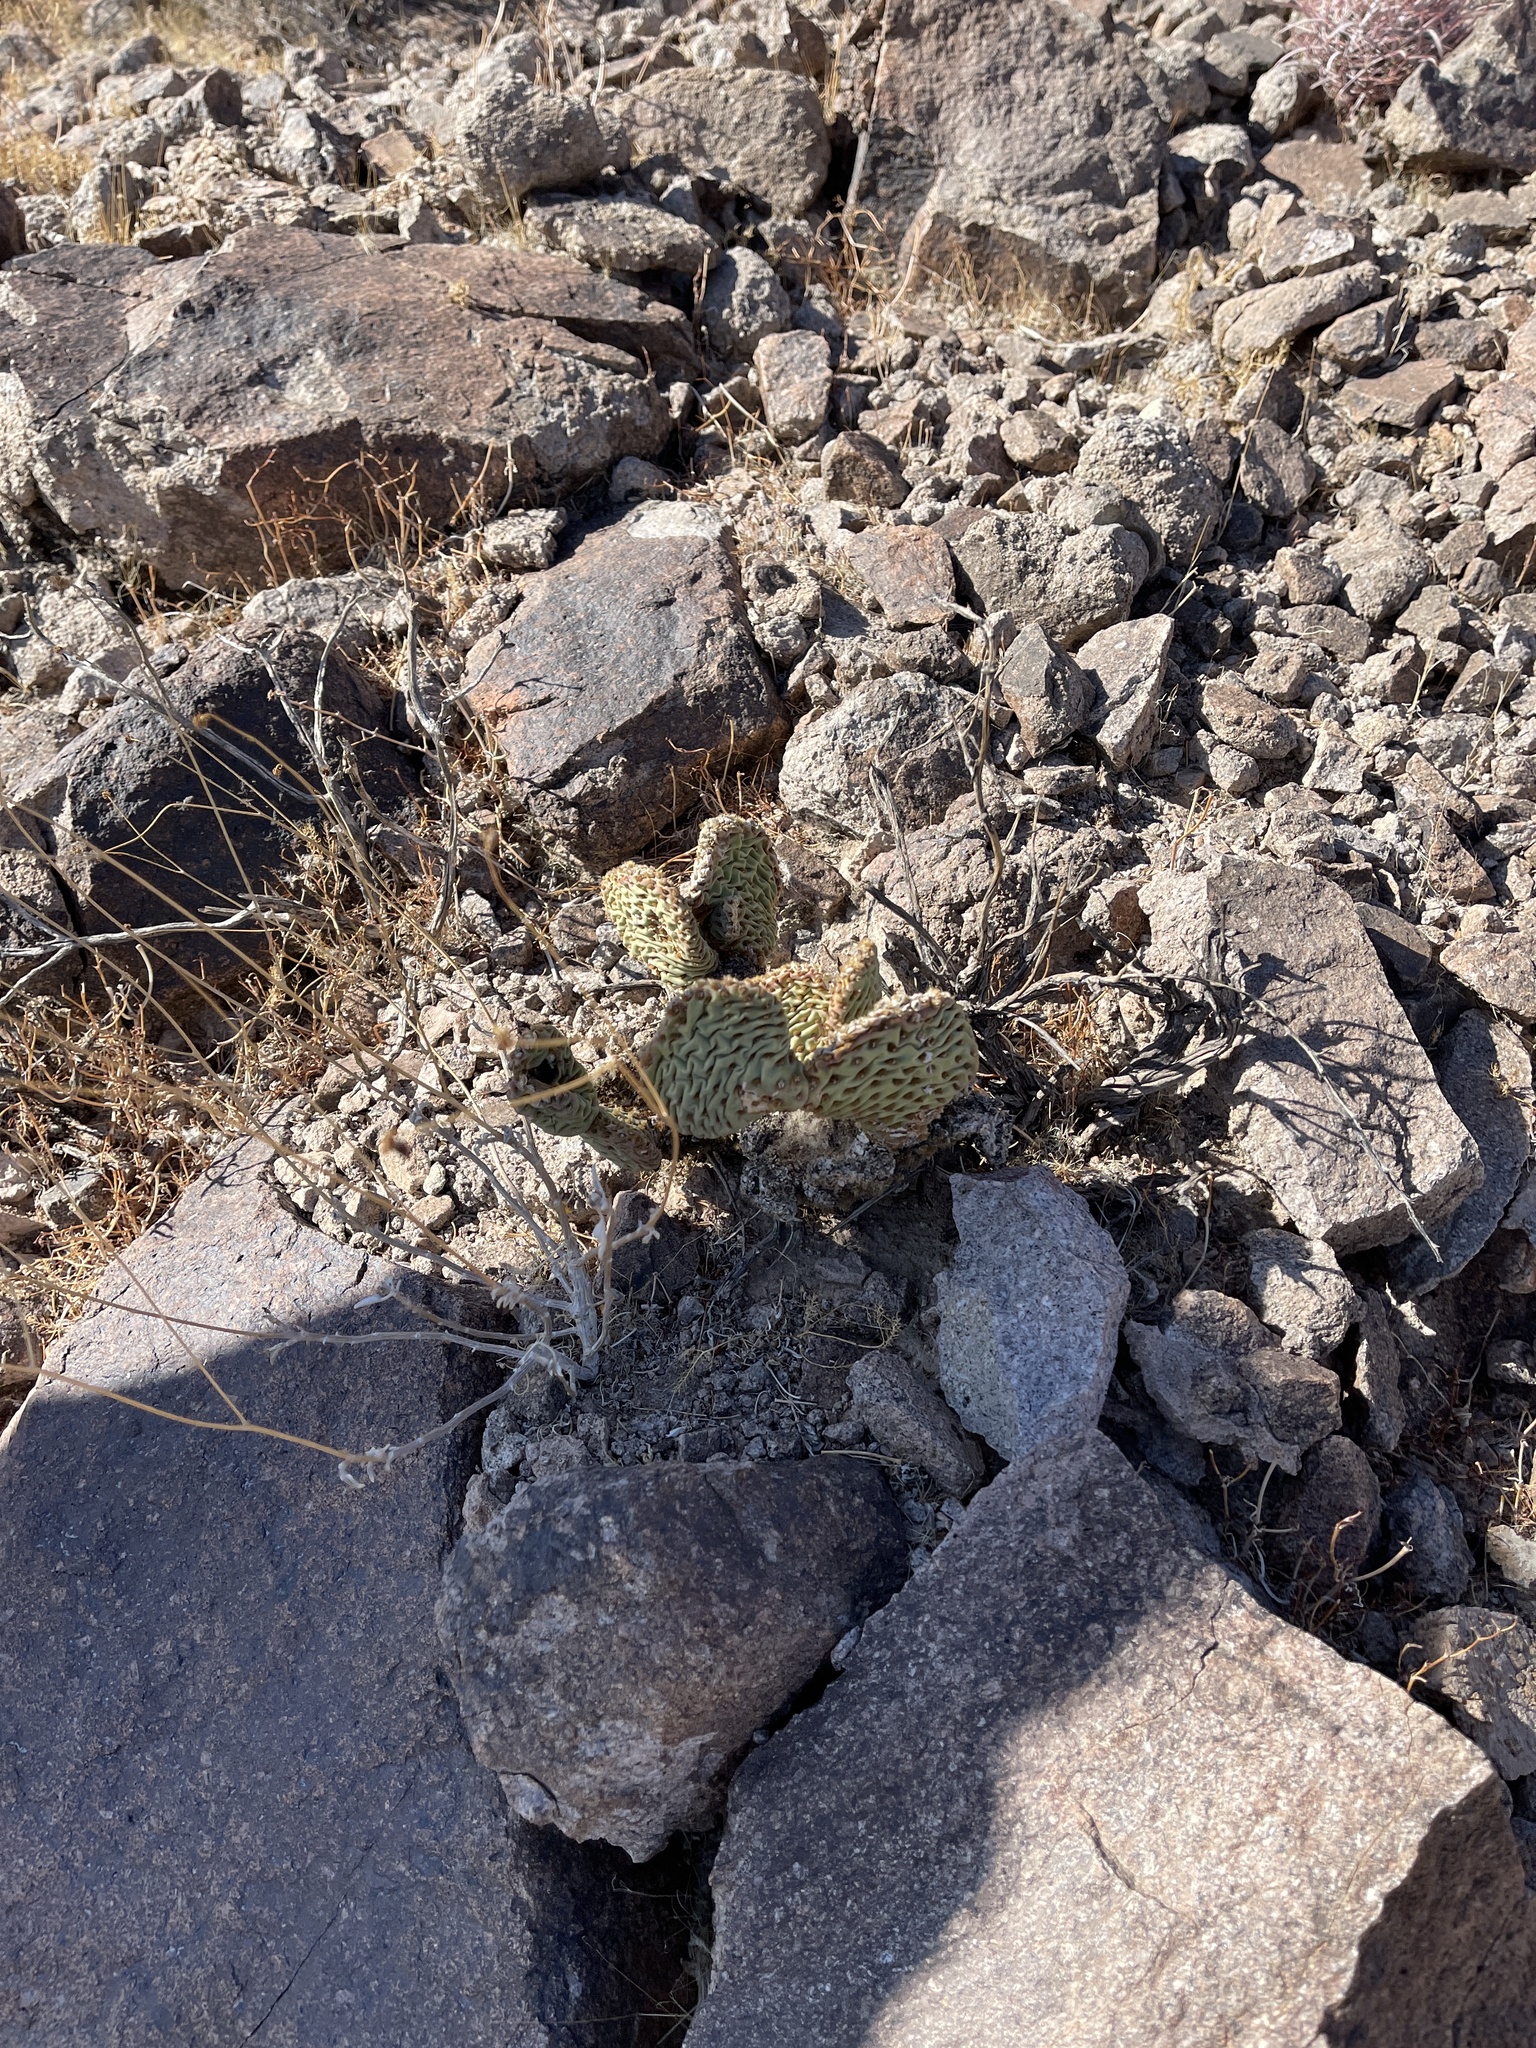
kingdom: Plantae
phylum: Tracheophyta
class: Magnoliopsida
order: Caryophyllales
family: Cactaceae
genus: Opuntia
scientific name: Opuntia basilaris
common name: Beavertail prickly-pear
